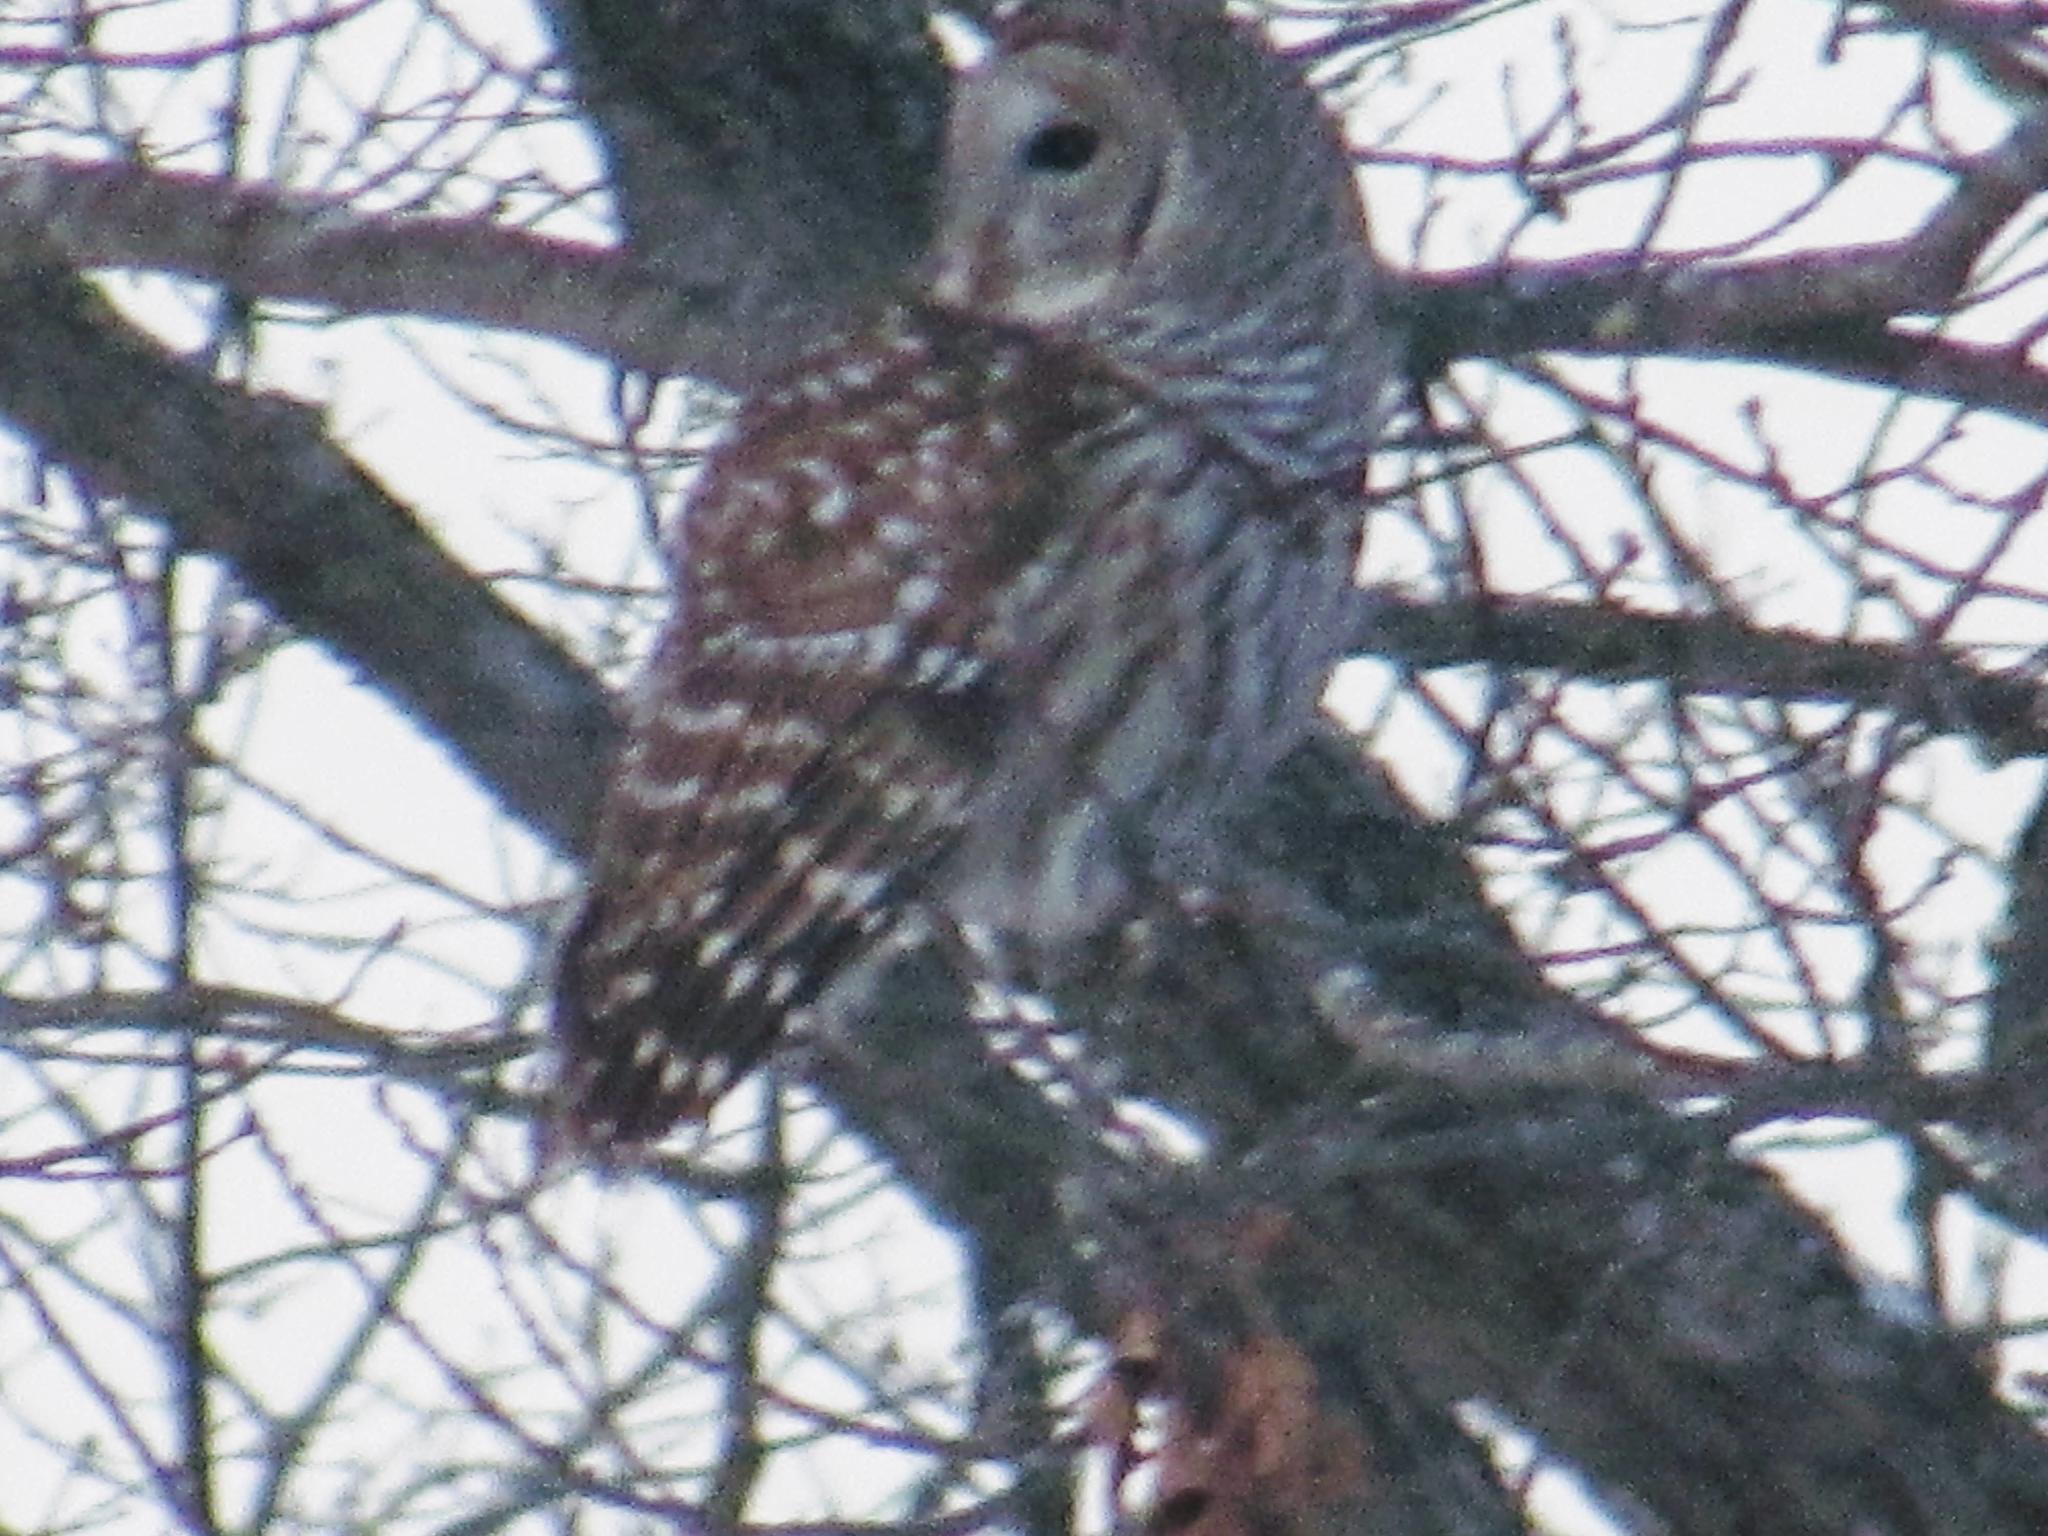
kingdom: Animalia
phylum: Chordata
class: Aves
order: Strigiformes
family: Strigidae
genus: Strix
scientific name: Strix varia
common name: Barred owl
